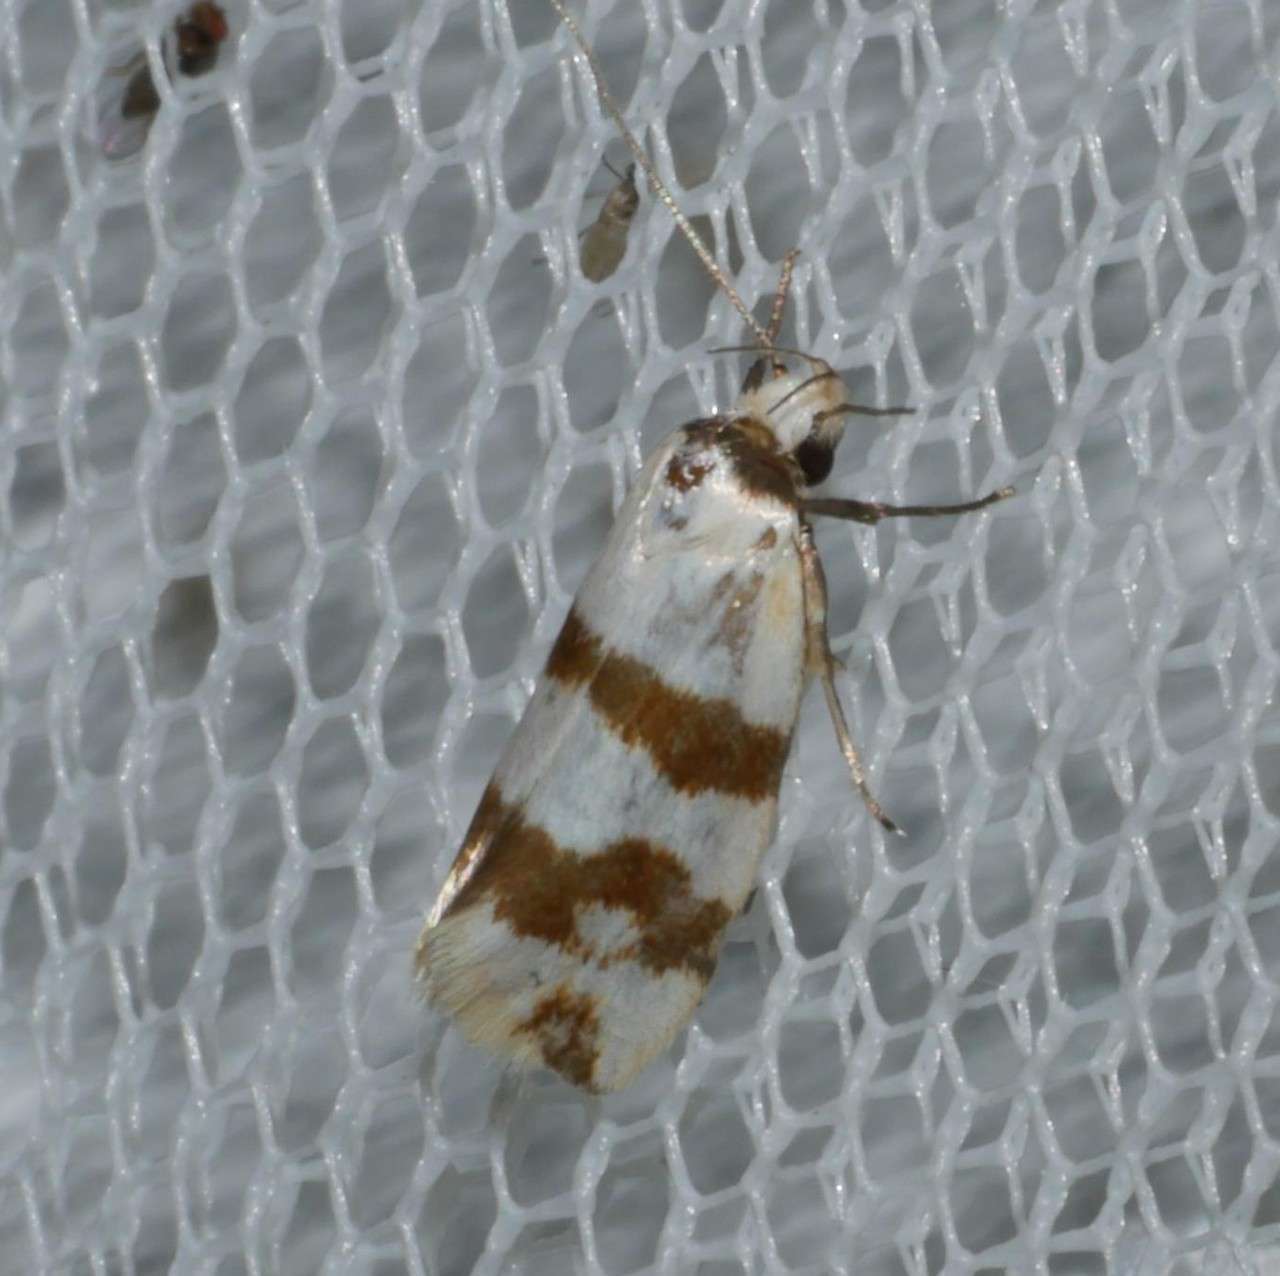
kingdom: Animalia
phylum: Arthropoda
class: Insecta
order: Lepidoptera
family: Oecophoridae
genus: Tanyzancla
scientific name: Tanyzancla atricollis
